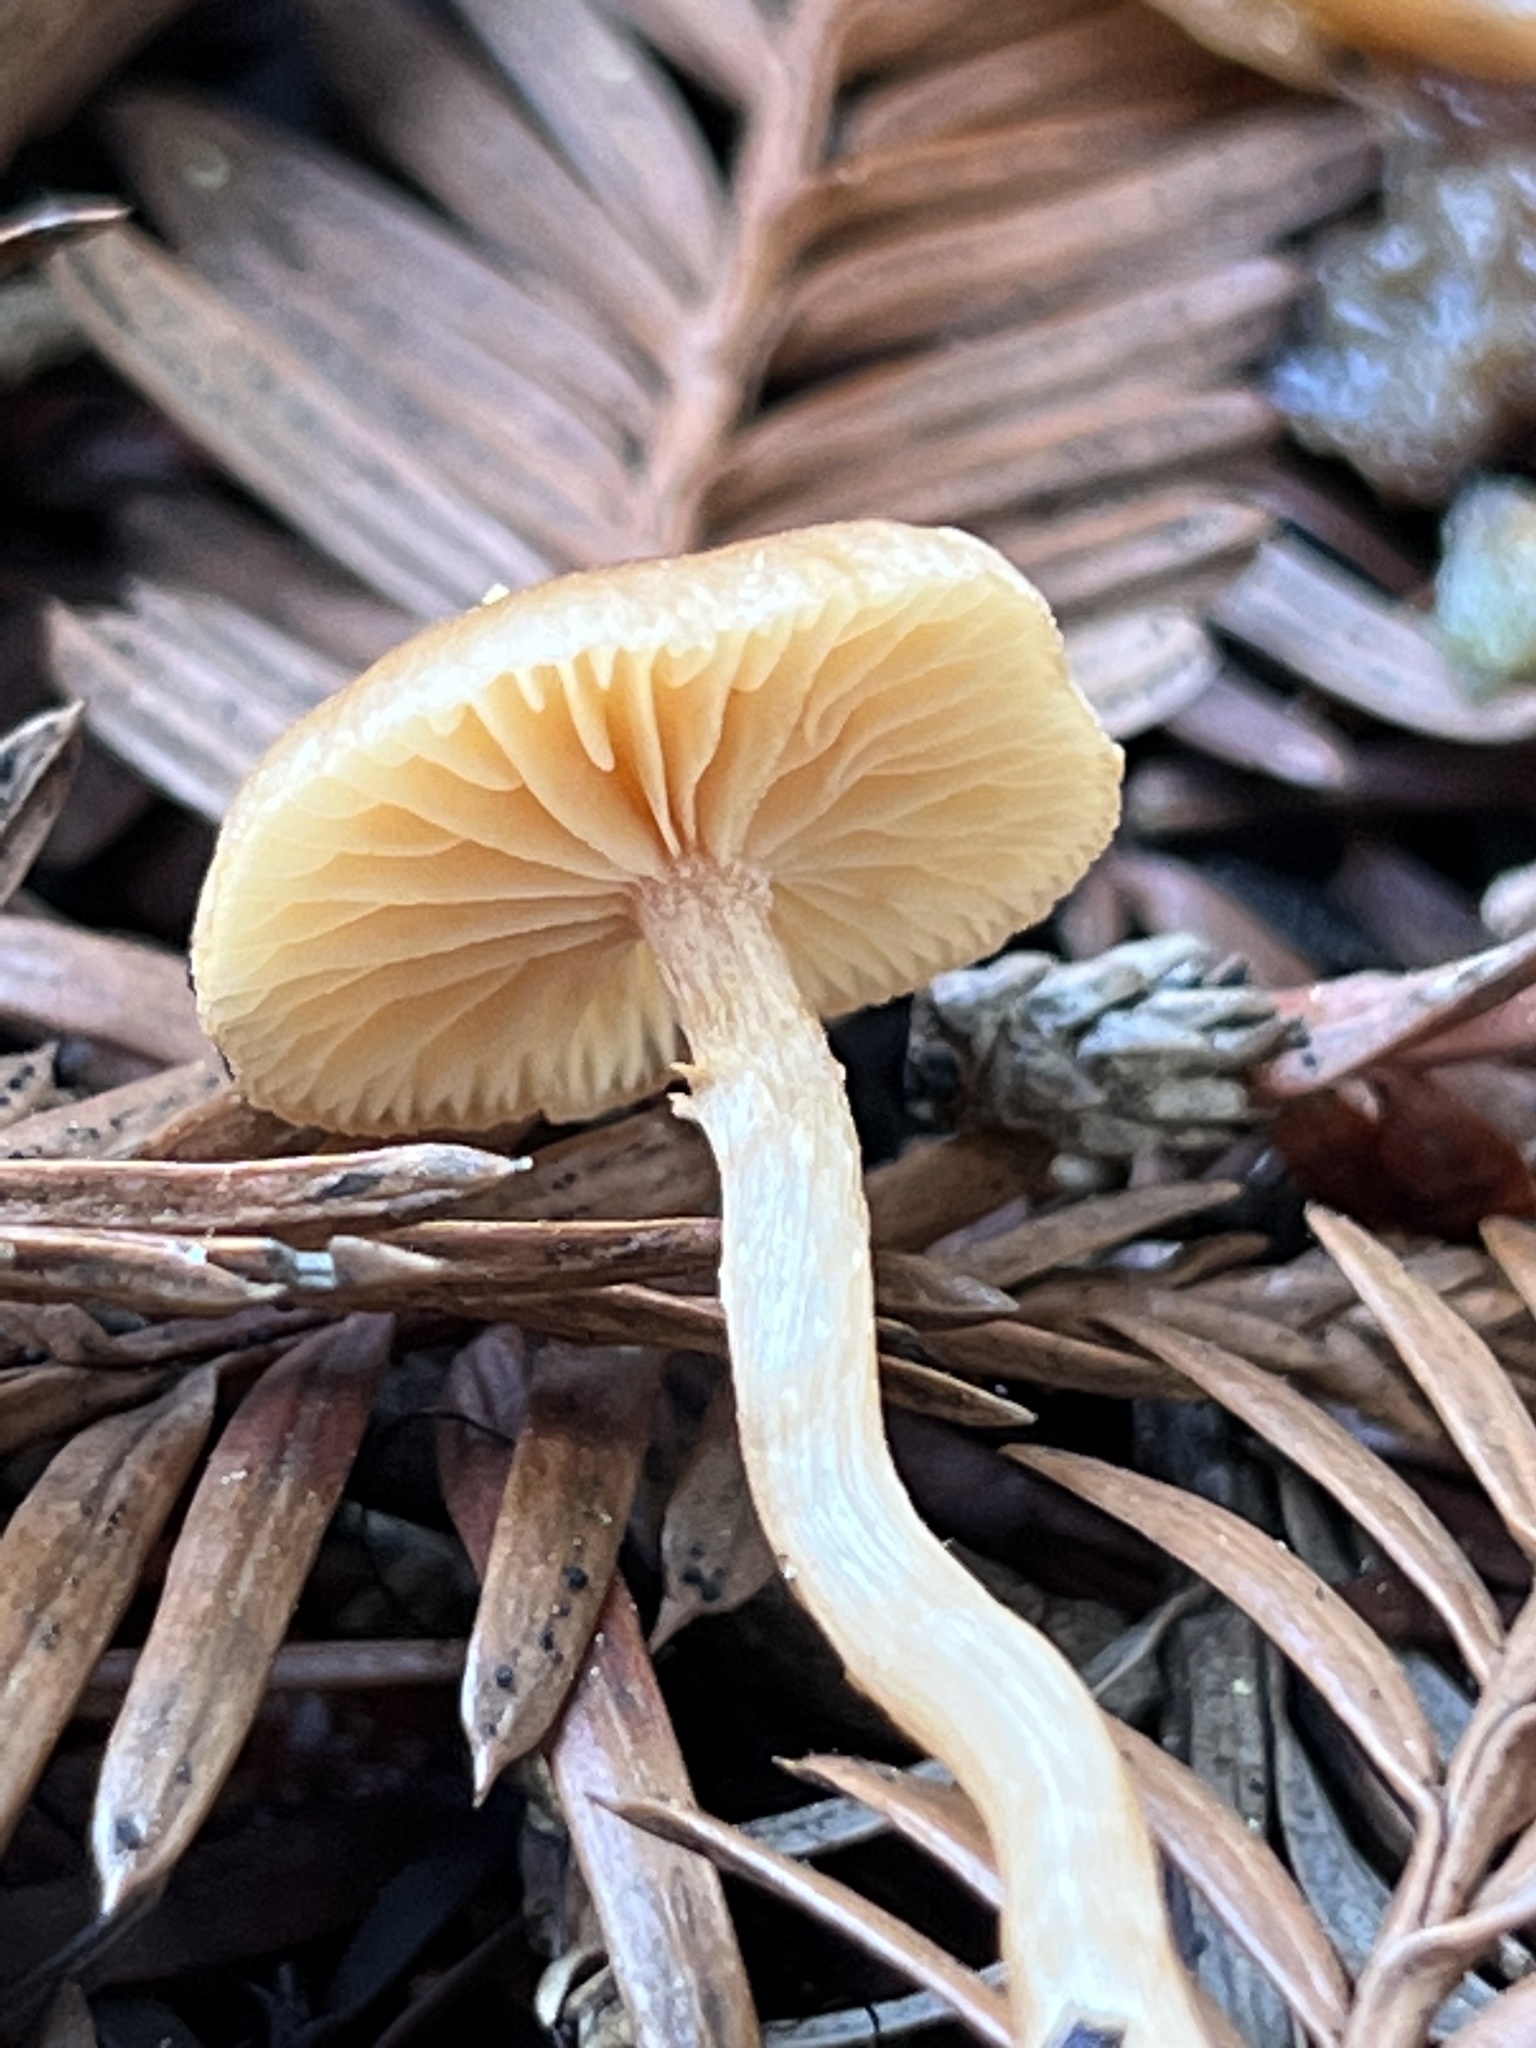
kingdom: Fungi
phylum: Basidiomycota
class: Agaricomycetes
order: Agaricales
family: Bolbitiaceae
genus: Conocybe
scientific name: Conocybe rugosa
